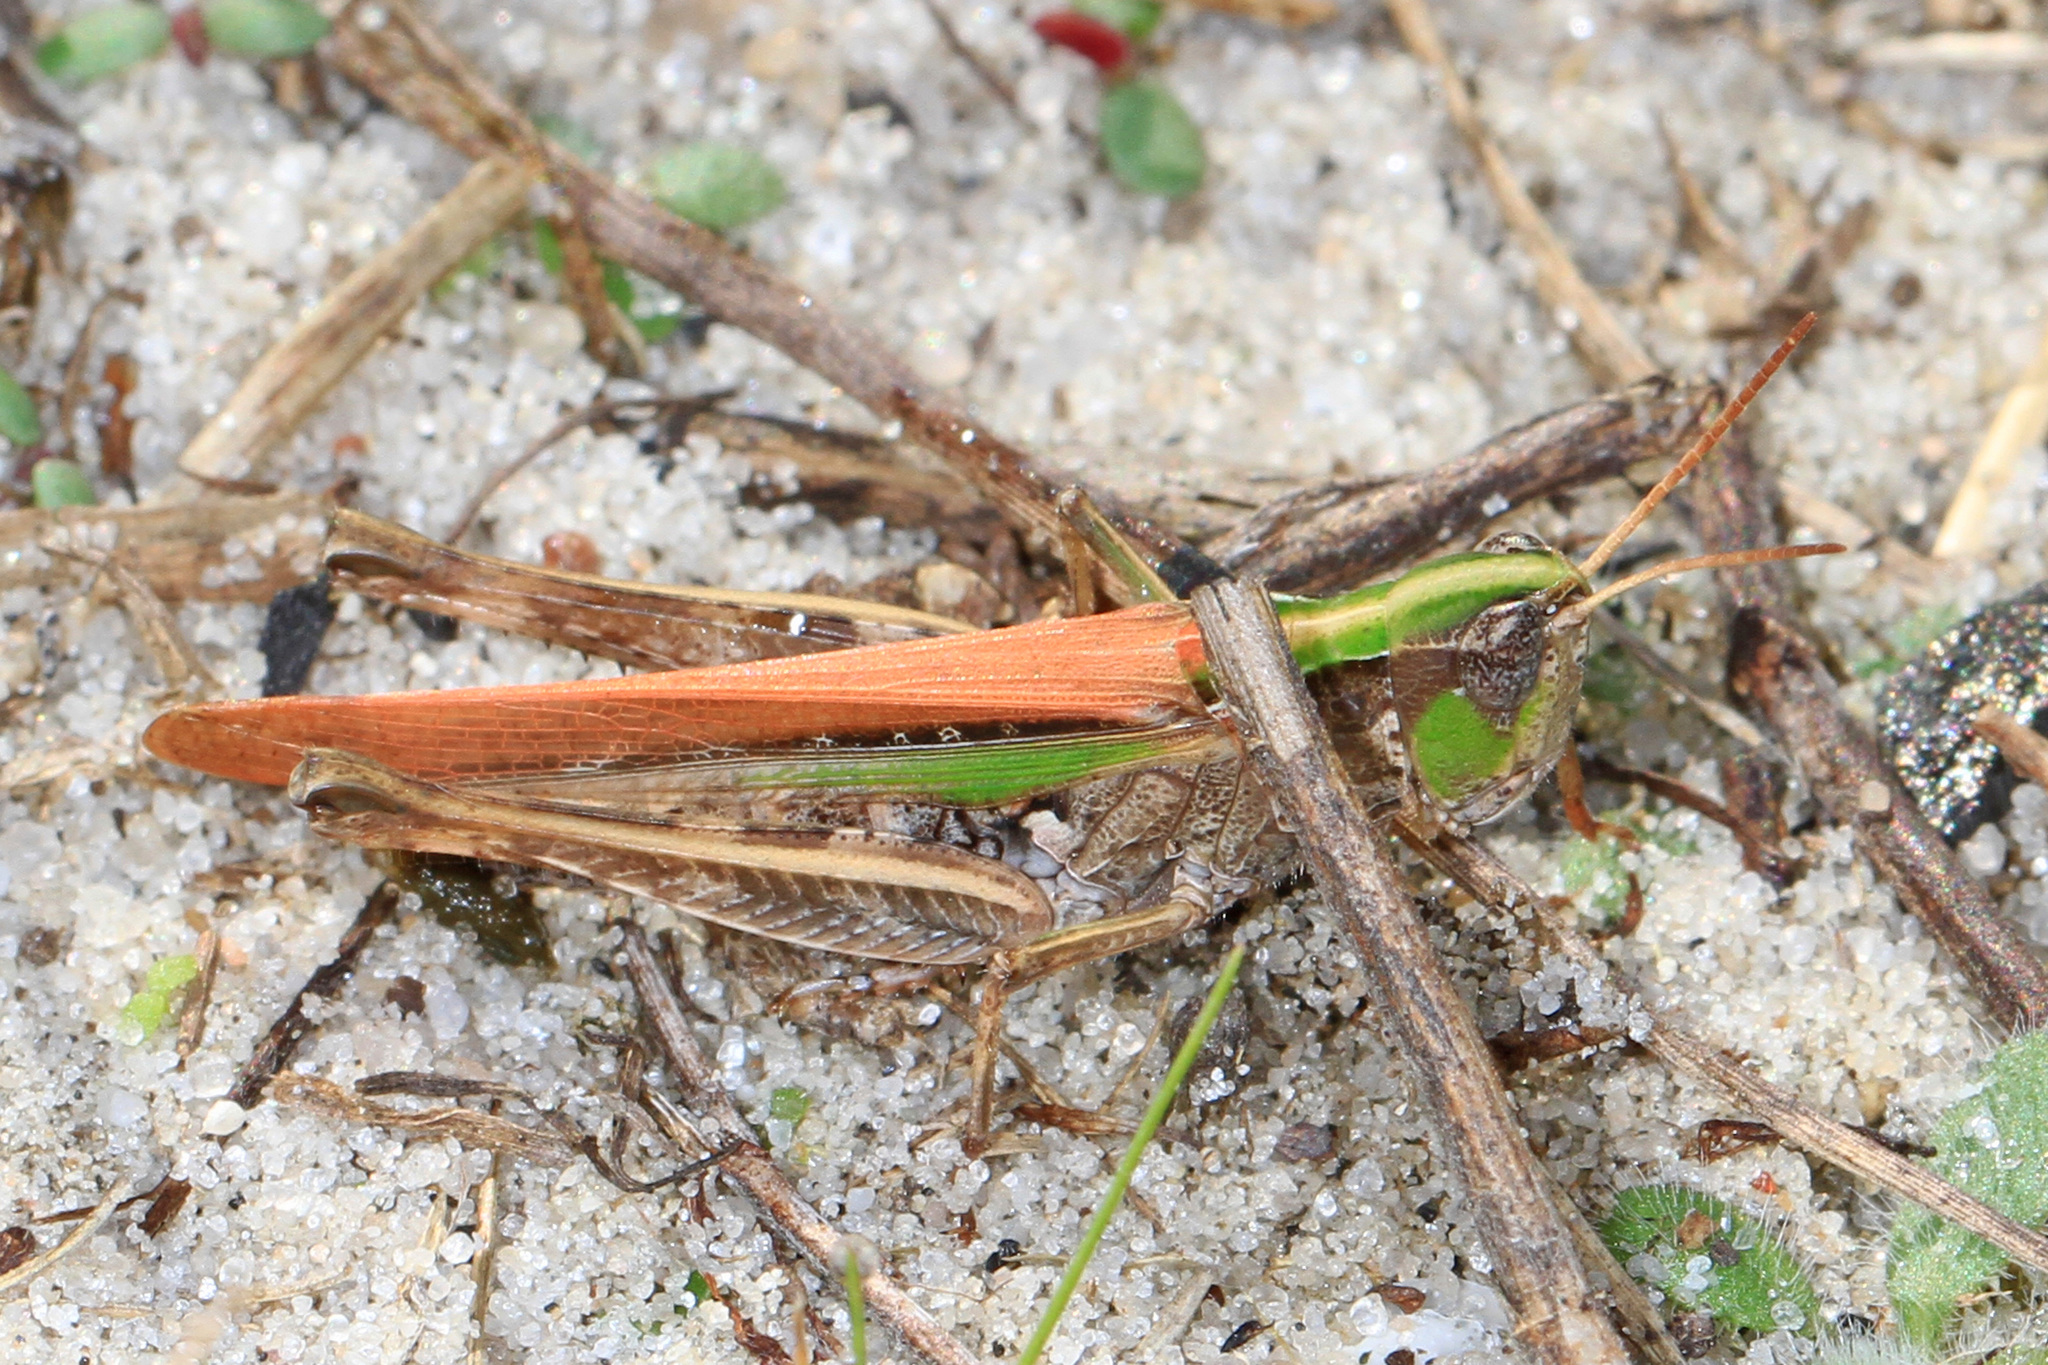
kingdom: Animalia
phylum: Arthropoda
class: Insecta
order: Orthoptera
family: Acrididae
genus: Orphulella
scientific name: Orphulella pelidna
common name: Spotted-wing grasshopper
